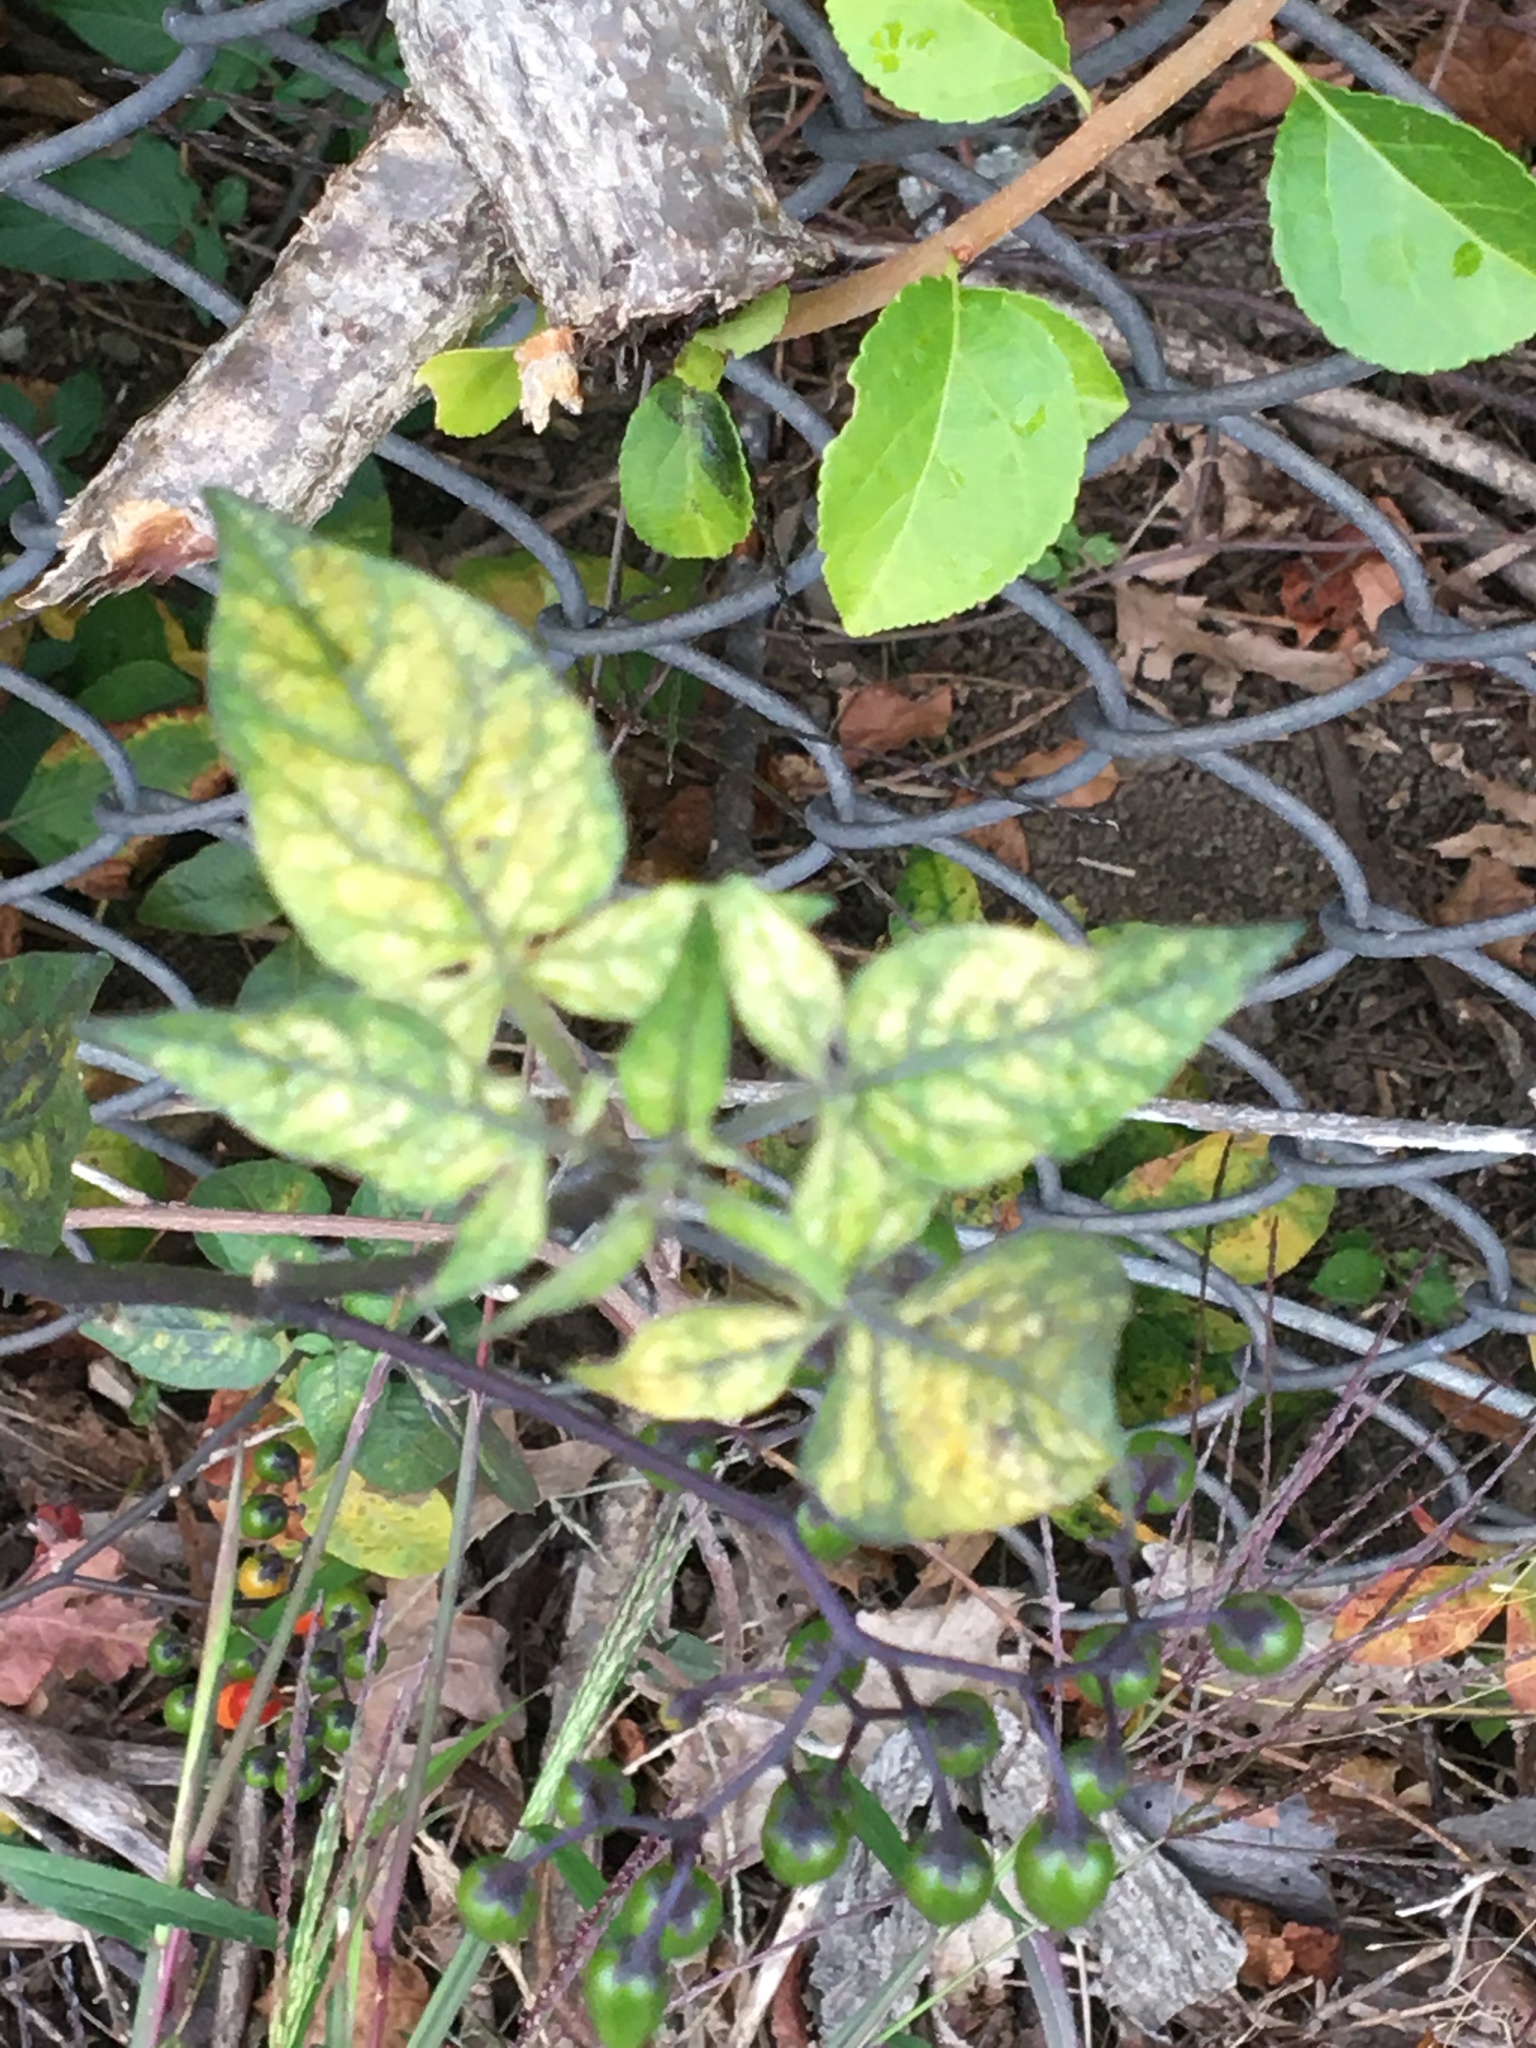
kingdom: Plantae
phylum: Tracheophyta
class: Magnoliopsida
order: Solanales
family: Solanaceae
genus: Solanum
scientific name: Solanum dulcamara
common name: Climbing nightshade
